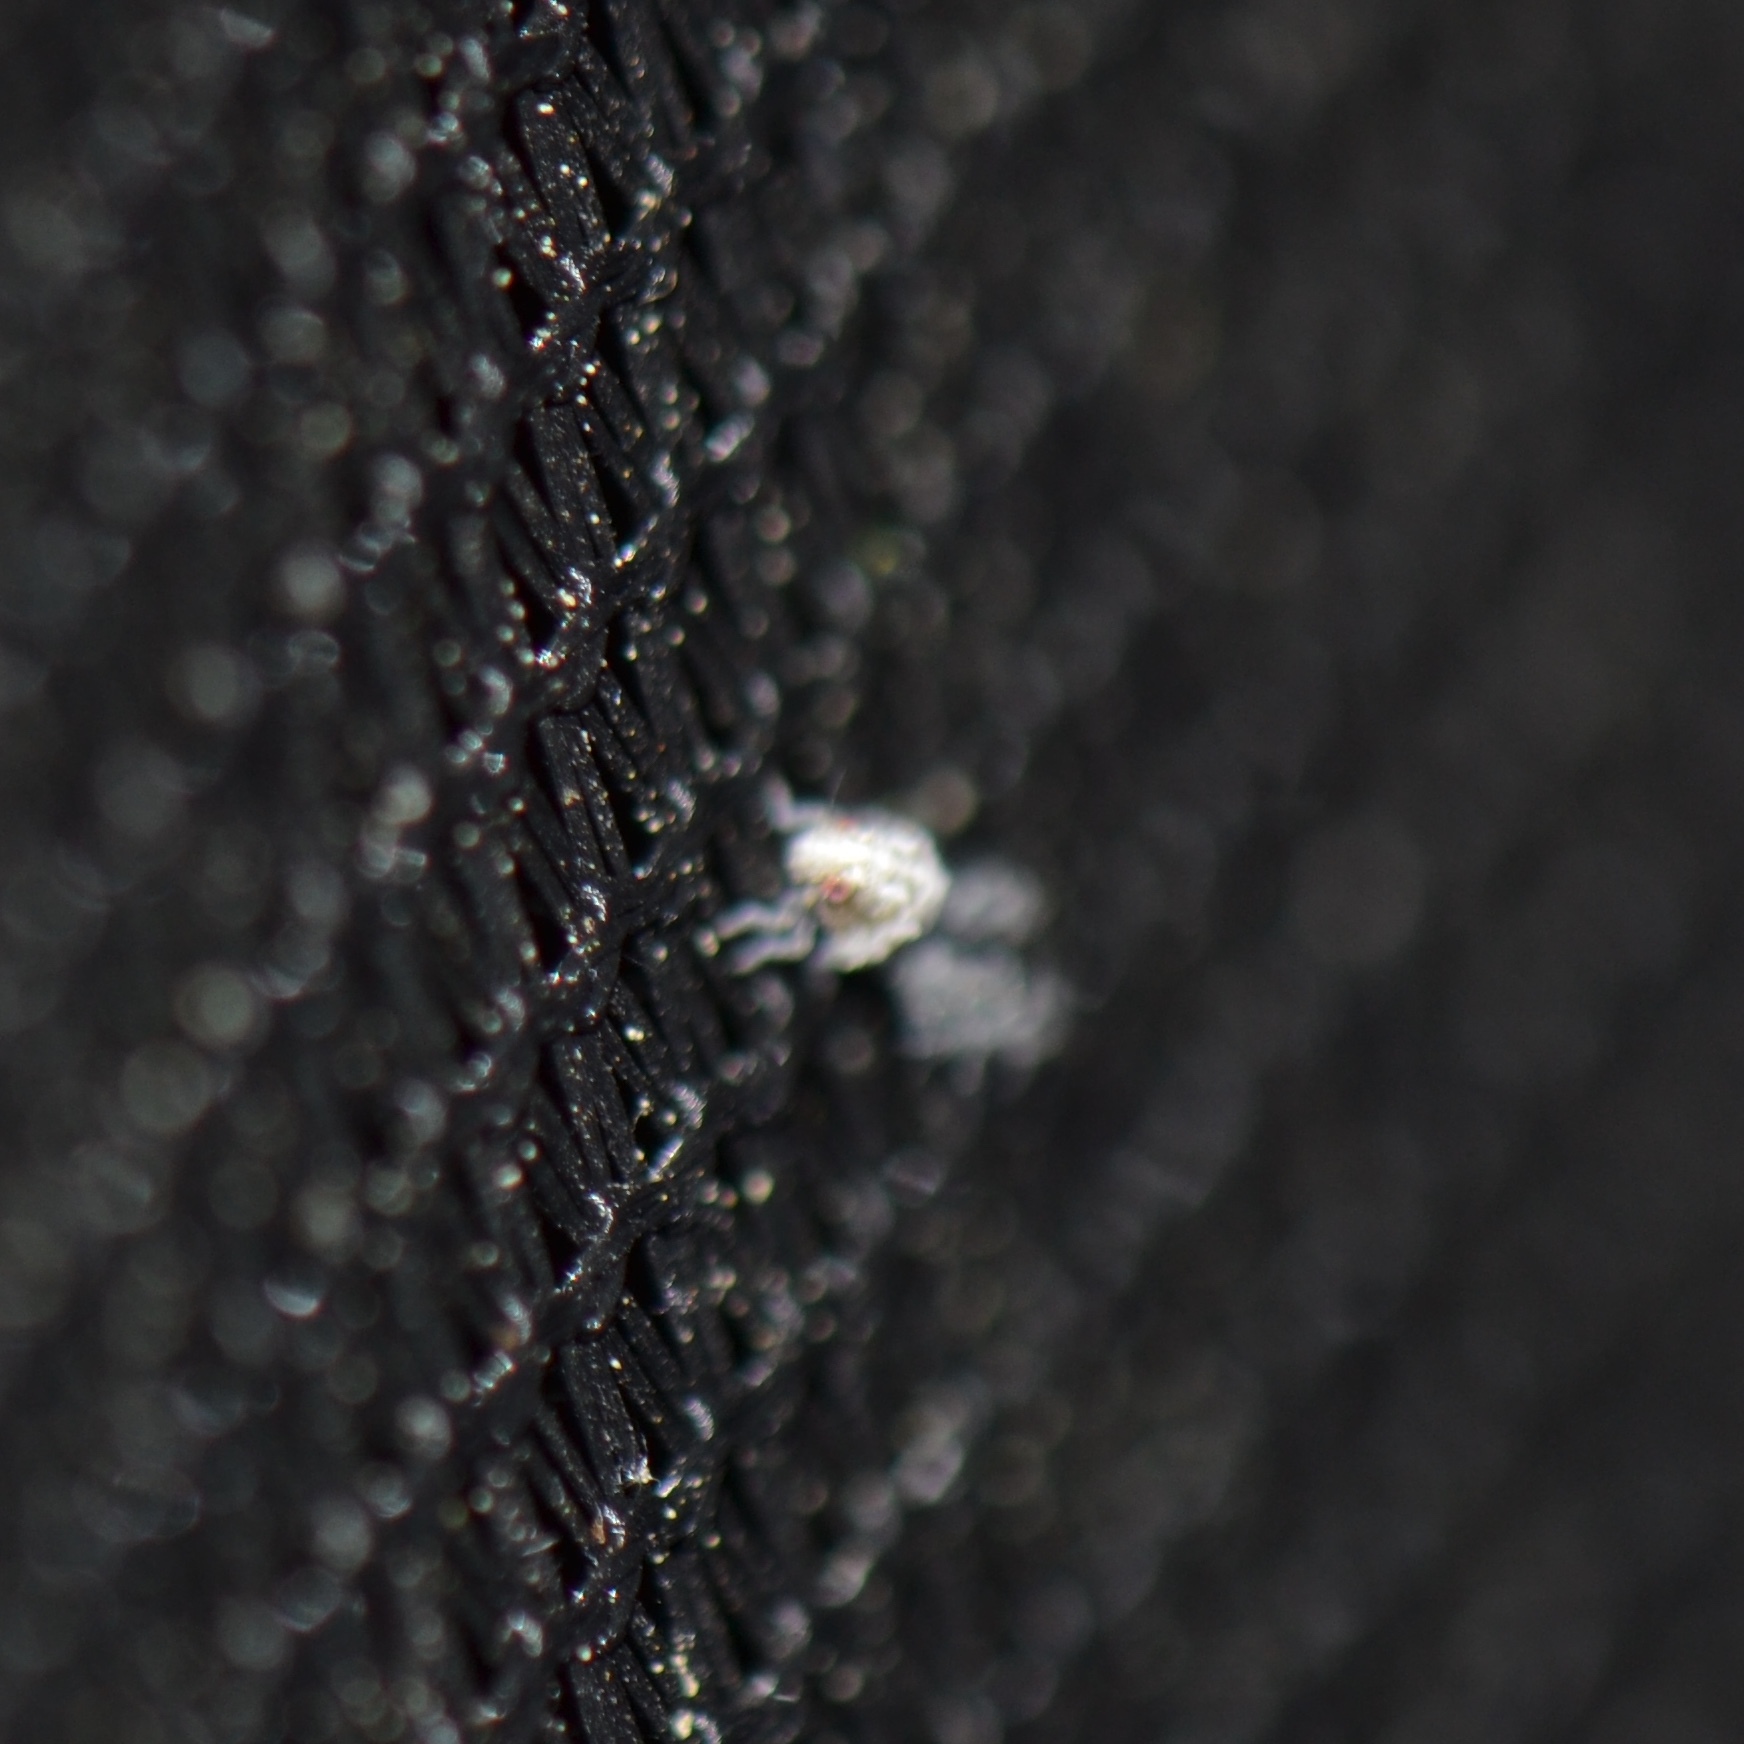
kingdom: Animalia
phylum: Arthropoda
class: Insecta
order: Hemiptera
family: Acanaloniidae
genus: Acanalonia
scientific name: Acanalonia servillei
